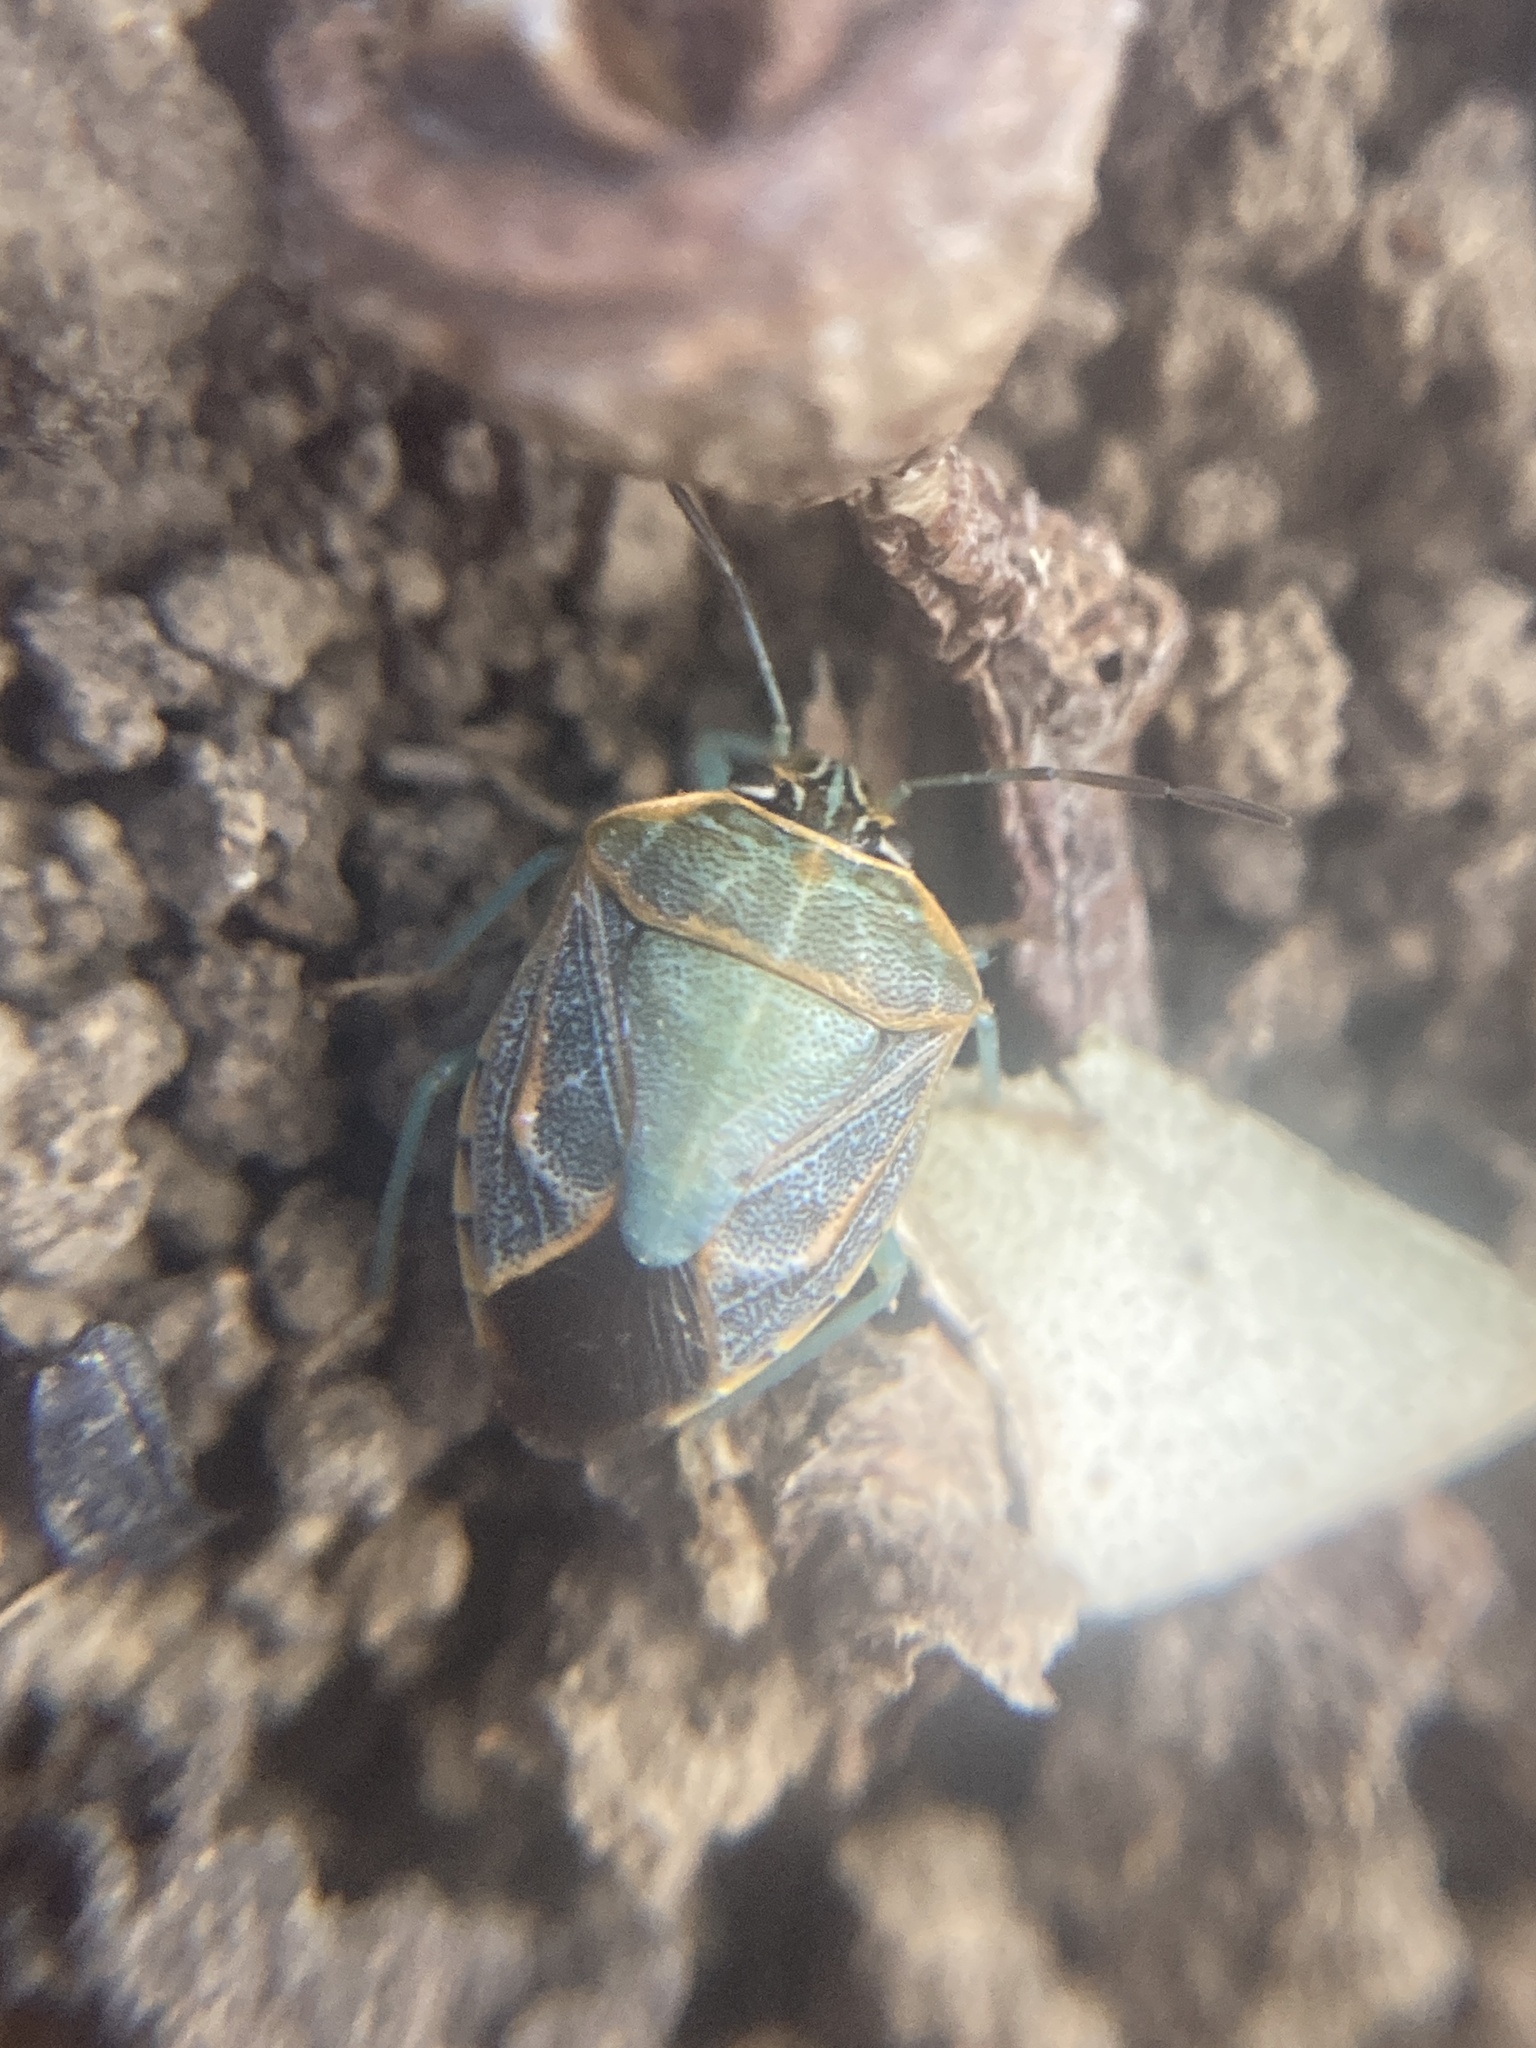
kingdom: Animalia
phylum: Arthropoda
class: Insecta
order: Hemiptera
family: Pentatomidae
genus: Antestiopsis
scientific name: Antestiopsis
